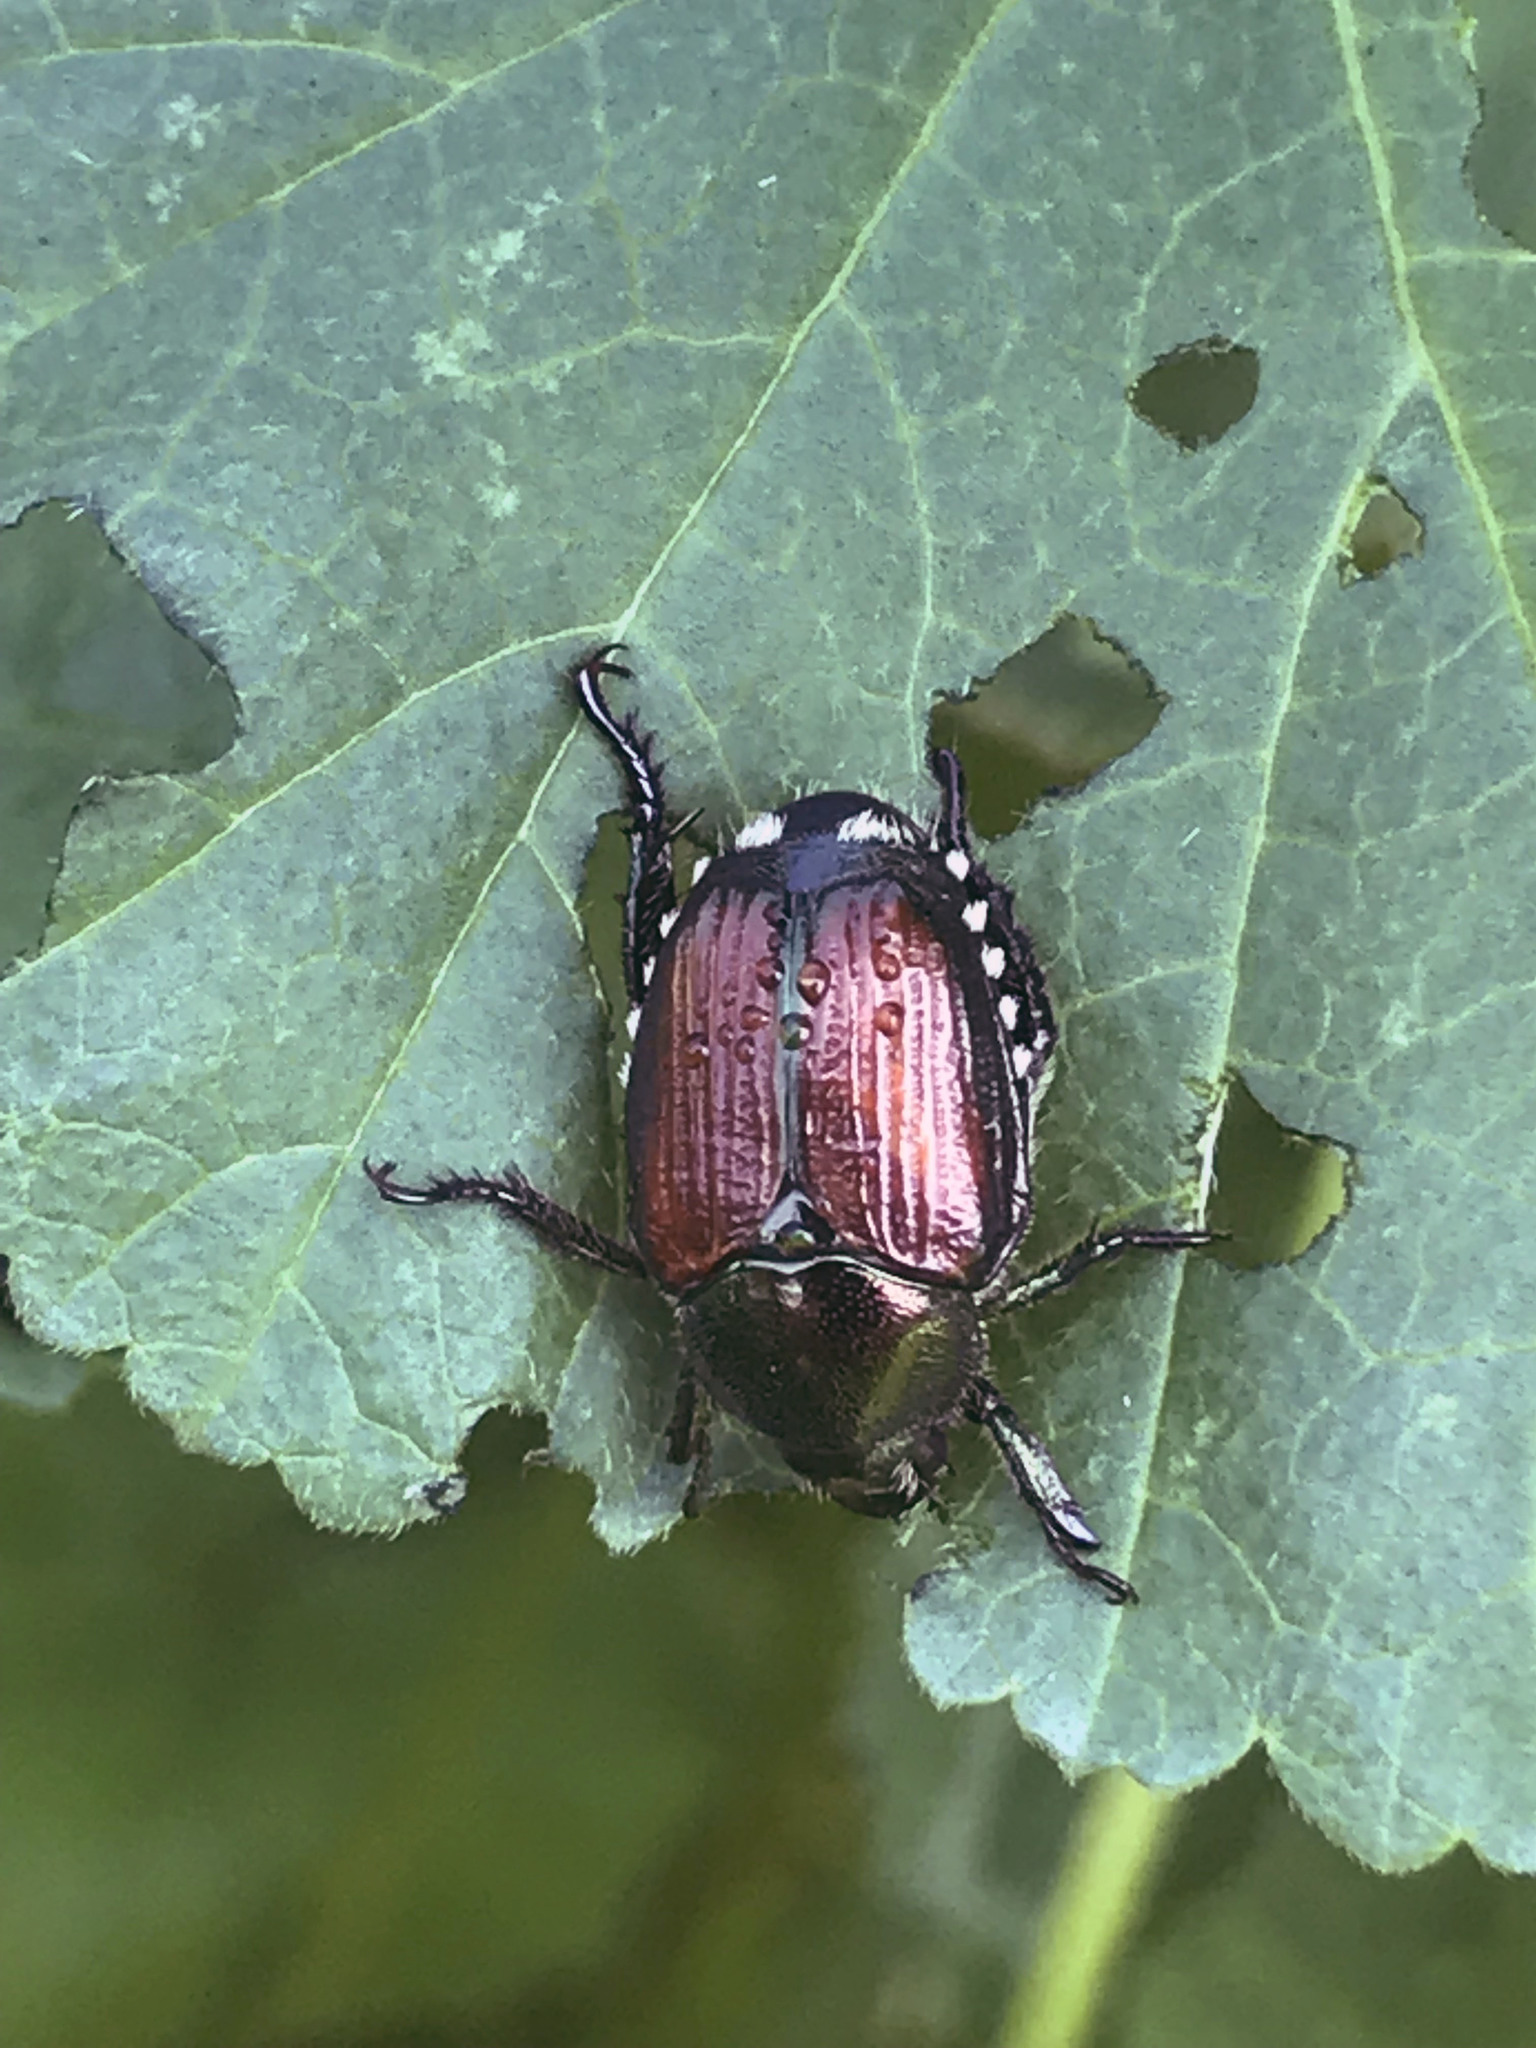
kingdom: Animalia
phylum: Arthropoda
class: Insecta
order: Coleoptera
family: Scarabaeidae
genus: Popillia
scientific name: Popillia japonica
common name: Japanese beetle
